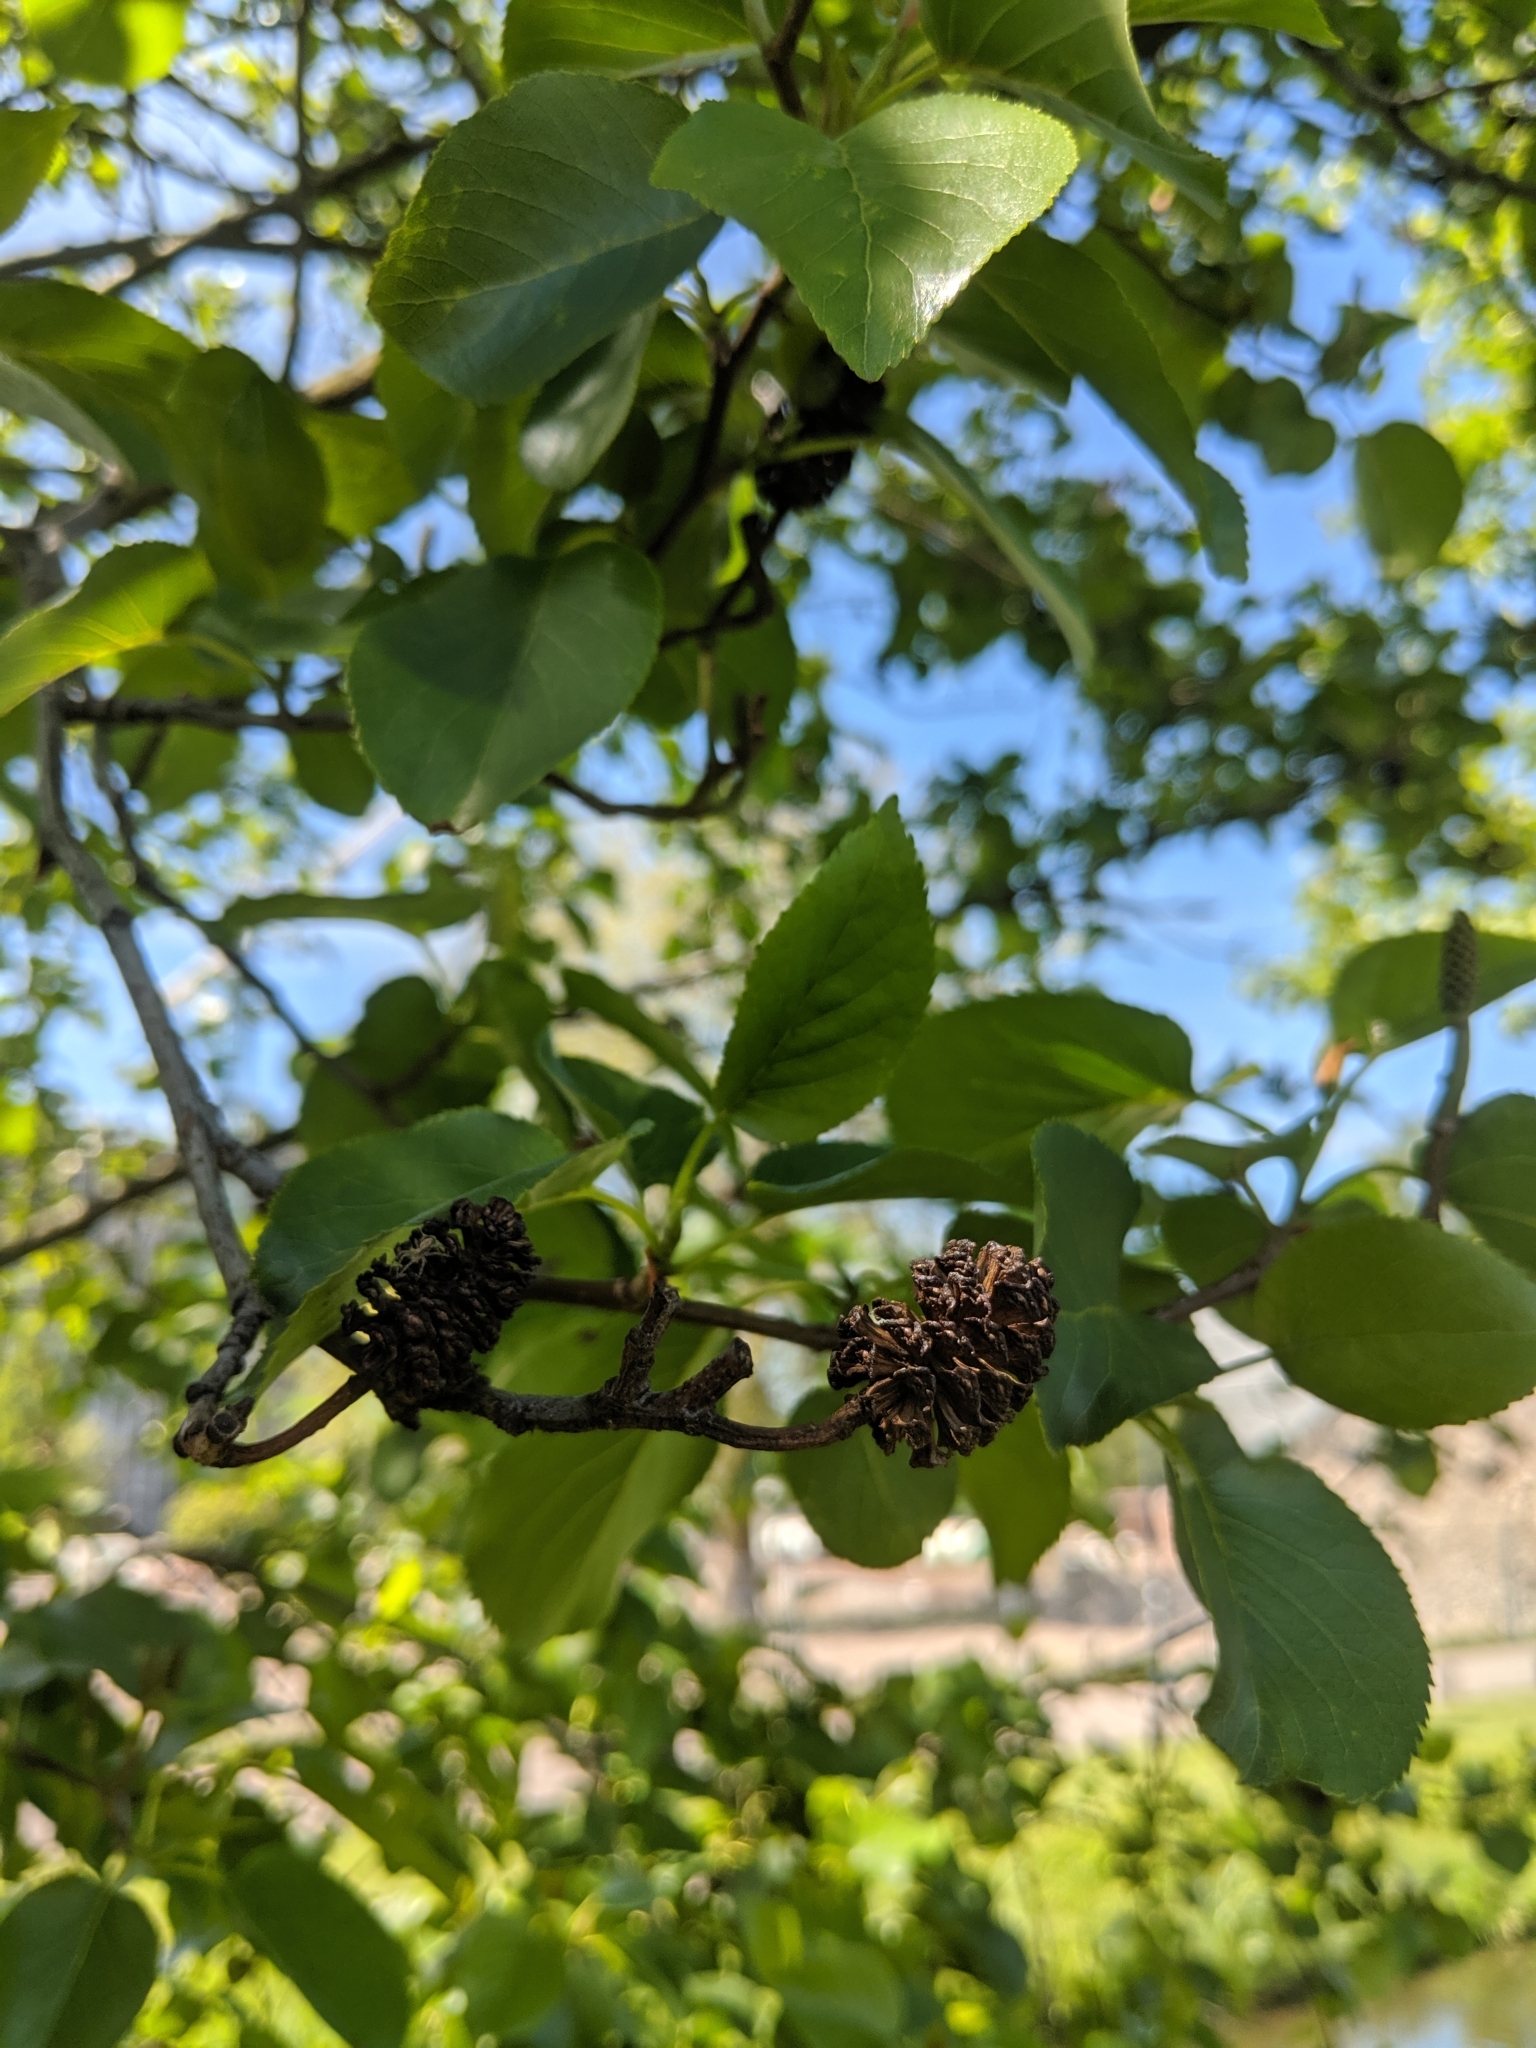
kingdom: Plantae
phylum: Tracheophyta
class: Magnoliopsida
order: Fagales
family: Betulaceae
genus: Alnus
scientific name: Alnus glutinosa
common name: Black alder
